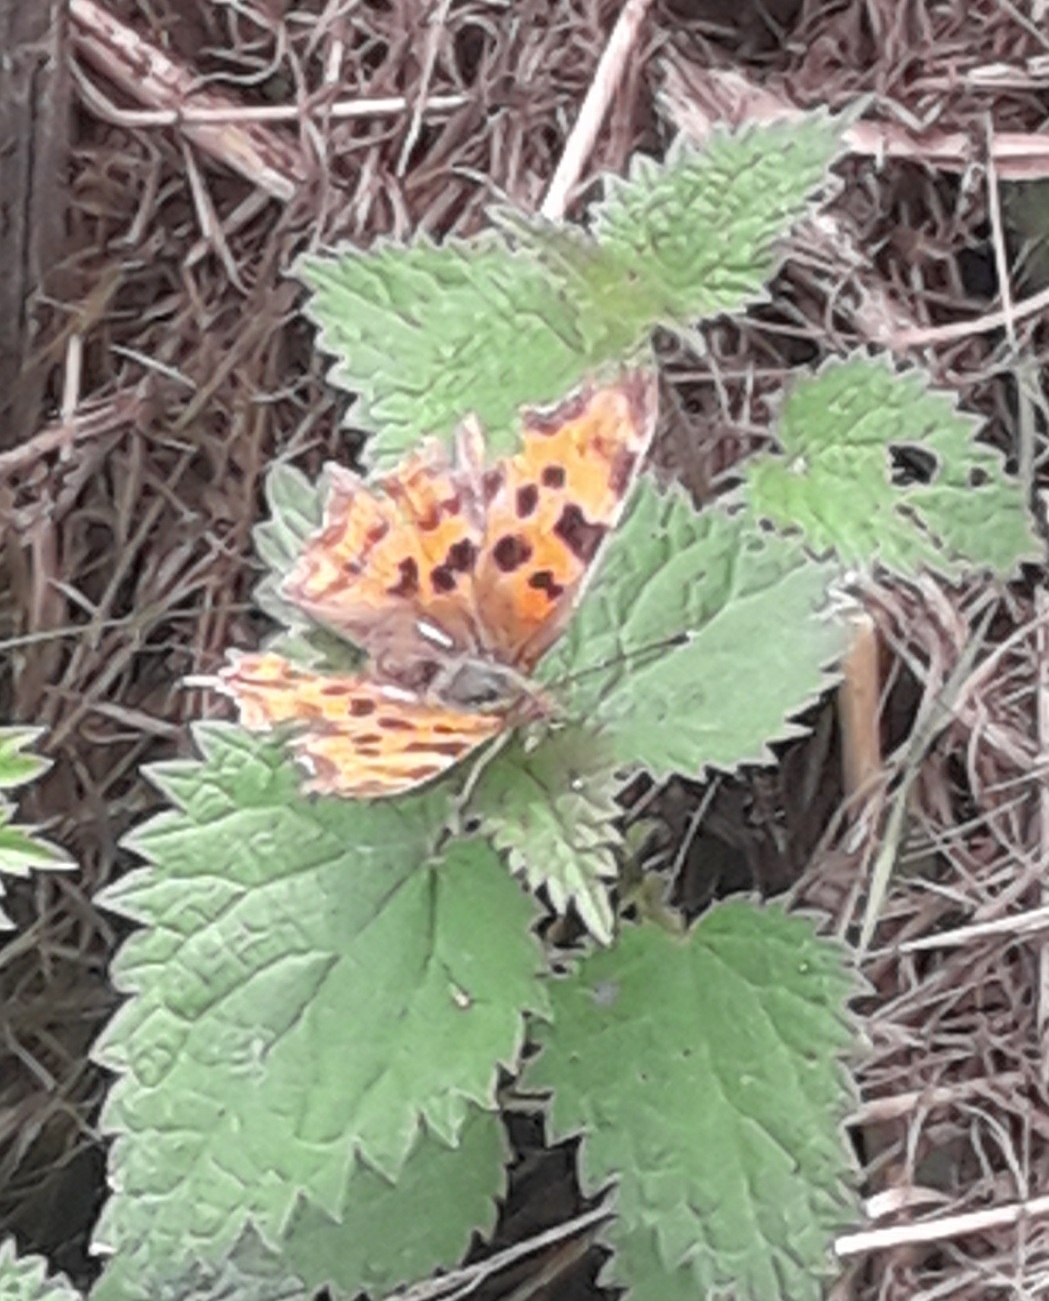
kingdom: Animalia
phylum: Arthropoda
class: Insecta
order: Lepidoptera
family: Nymphalidae
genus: Polygonia
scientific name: Polygonia c-album
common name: Comma
